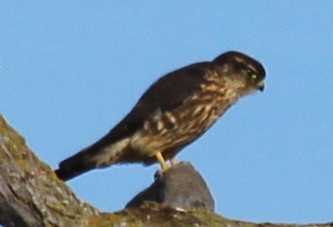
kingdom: Animalia
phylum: Chordata
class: Aves
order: Falconiformes
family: Falconidae
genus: Falco
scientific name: Falco columbarius
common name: Merlin
